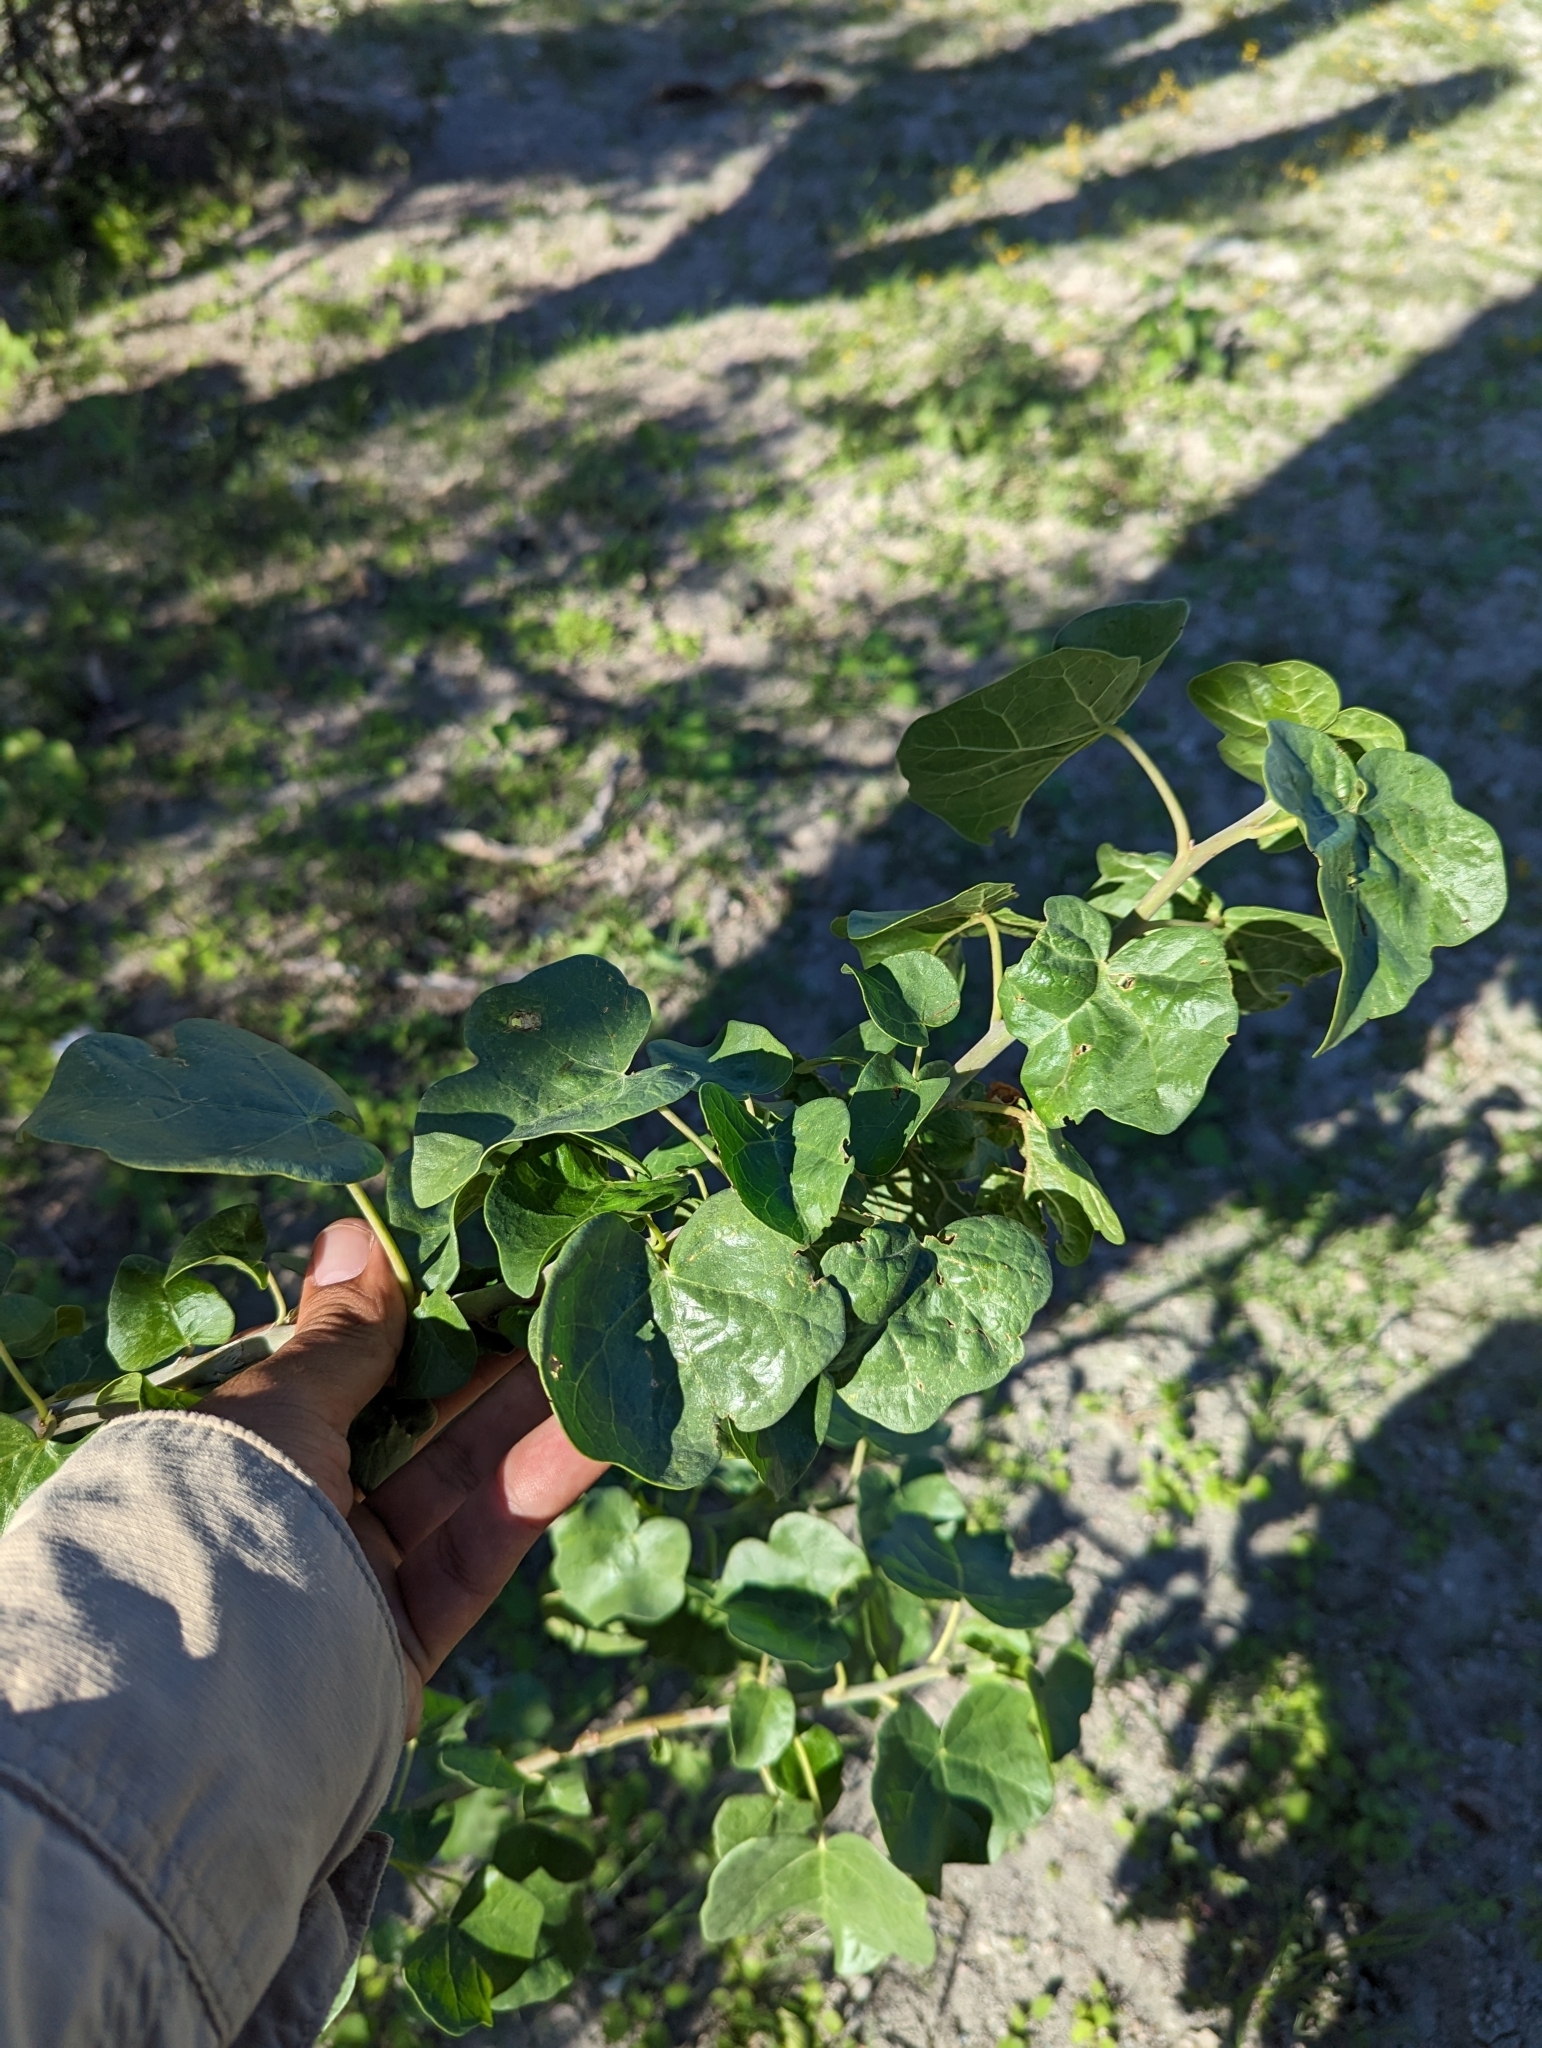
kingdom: Plantae
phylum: Tracheophyta
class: Magnoliopsida
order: Malpighiales
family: Euphorbiaceae
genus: Jatropha
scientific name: Jatropha cinerea
